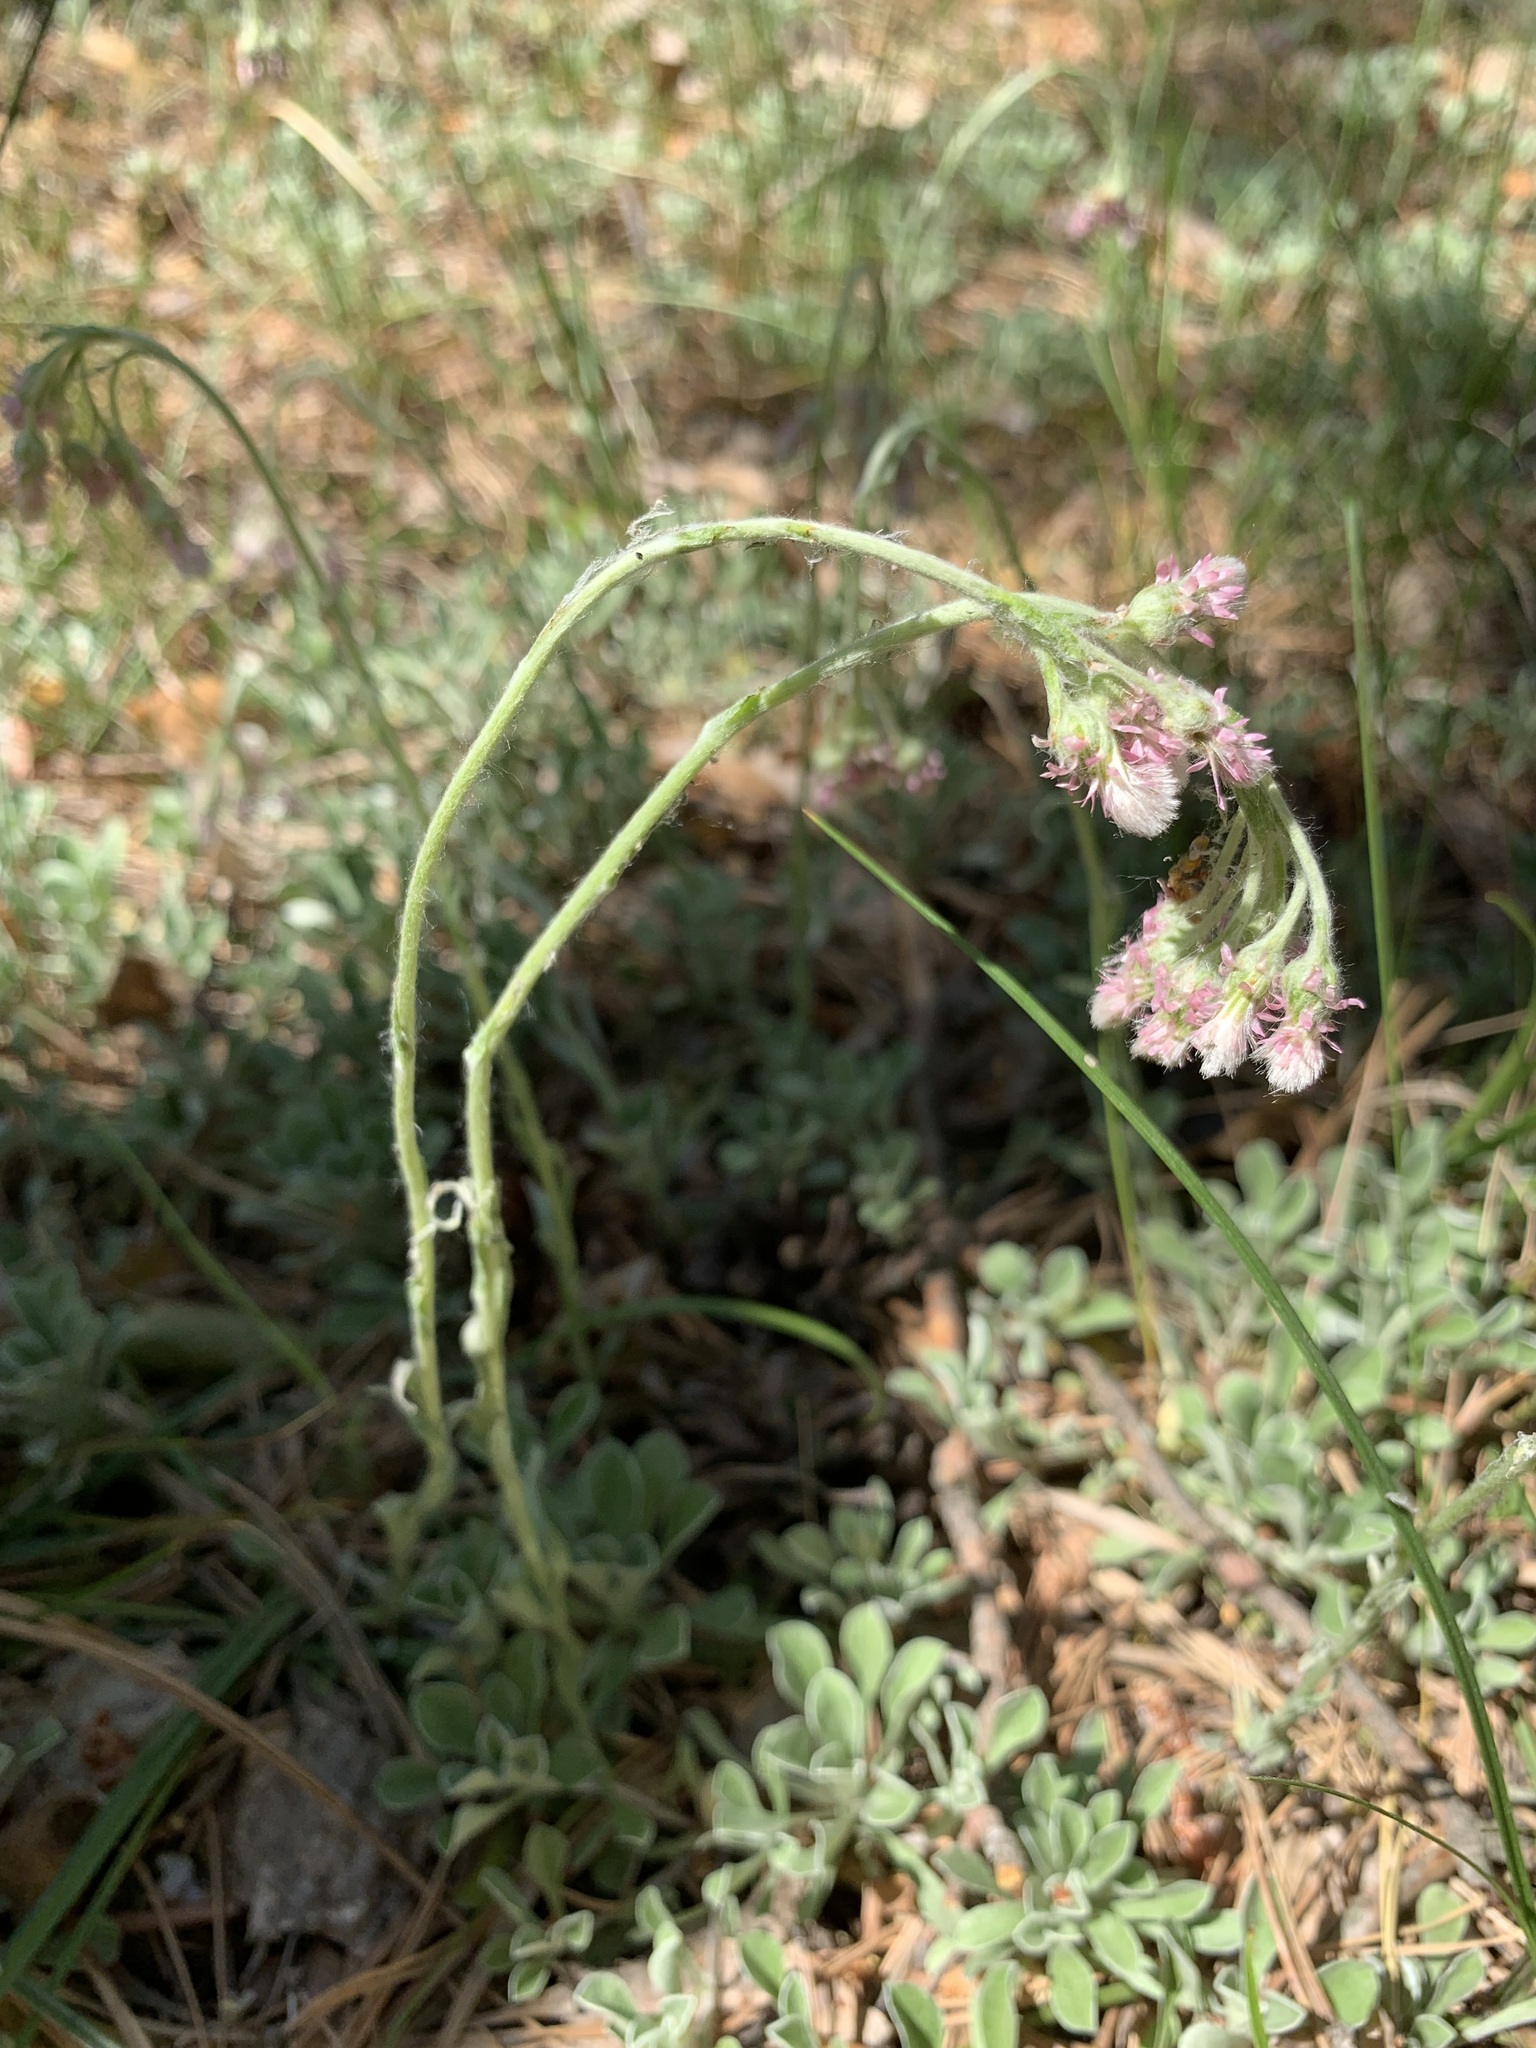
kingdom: Plantae
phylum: Tracheophyta
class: Magnoliopsida
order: Asterales
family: Asteraceae
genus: Antennaria
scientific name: Antennaria dioica
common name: Mountain everlasting
